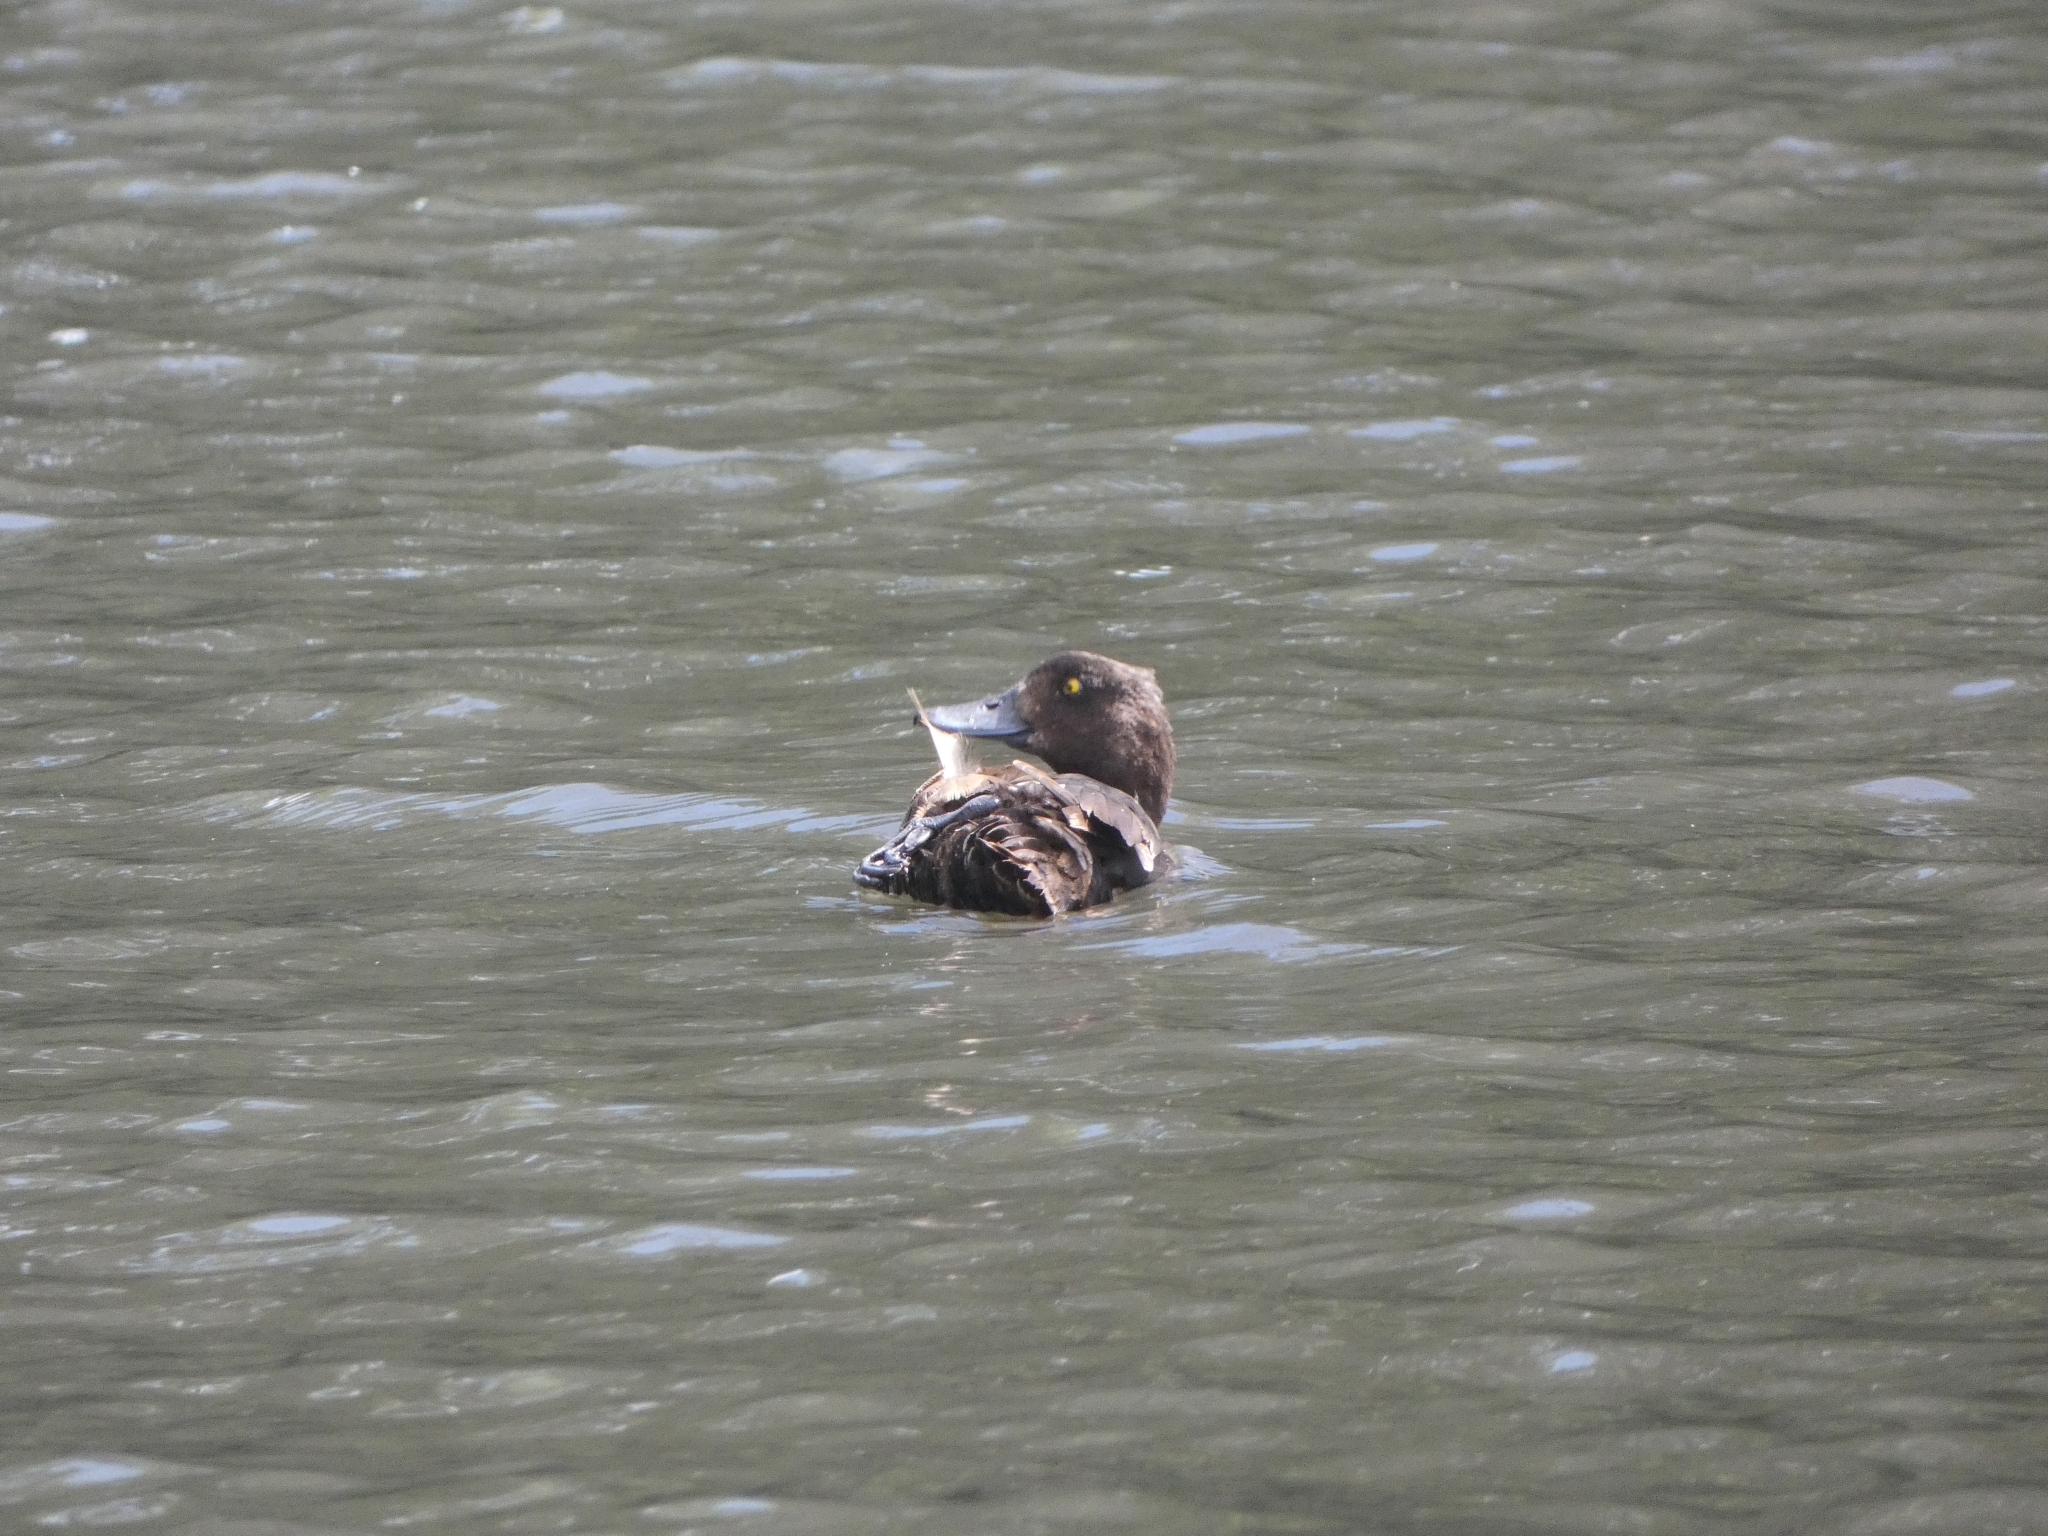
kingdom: Animalia
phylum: Chordata
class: Aves
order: Anseriformes
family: Anatidae
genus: Aythya
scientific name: Aythya fuligula
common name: Tufted duck
